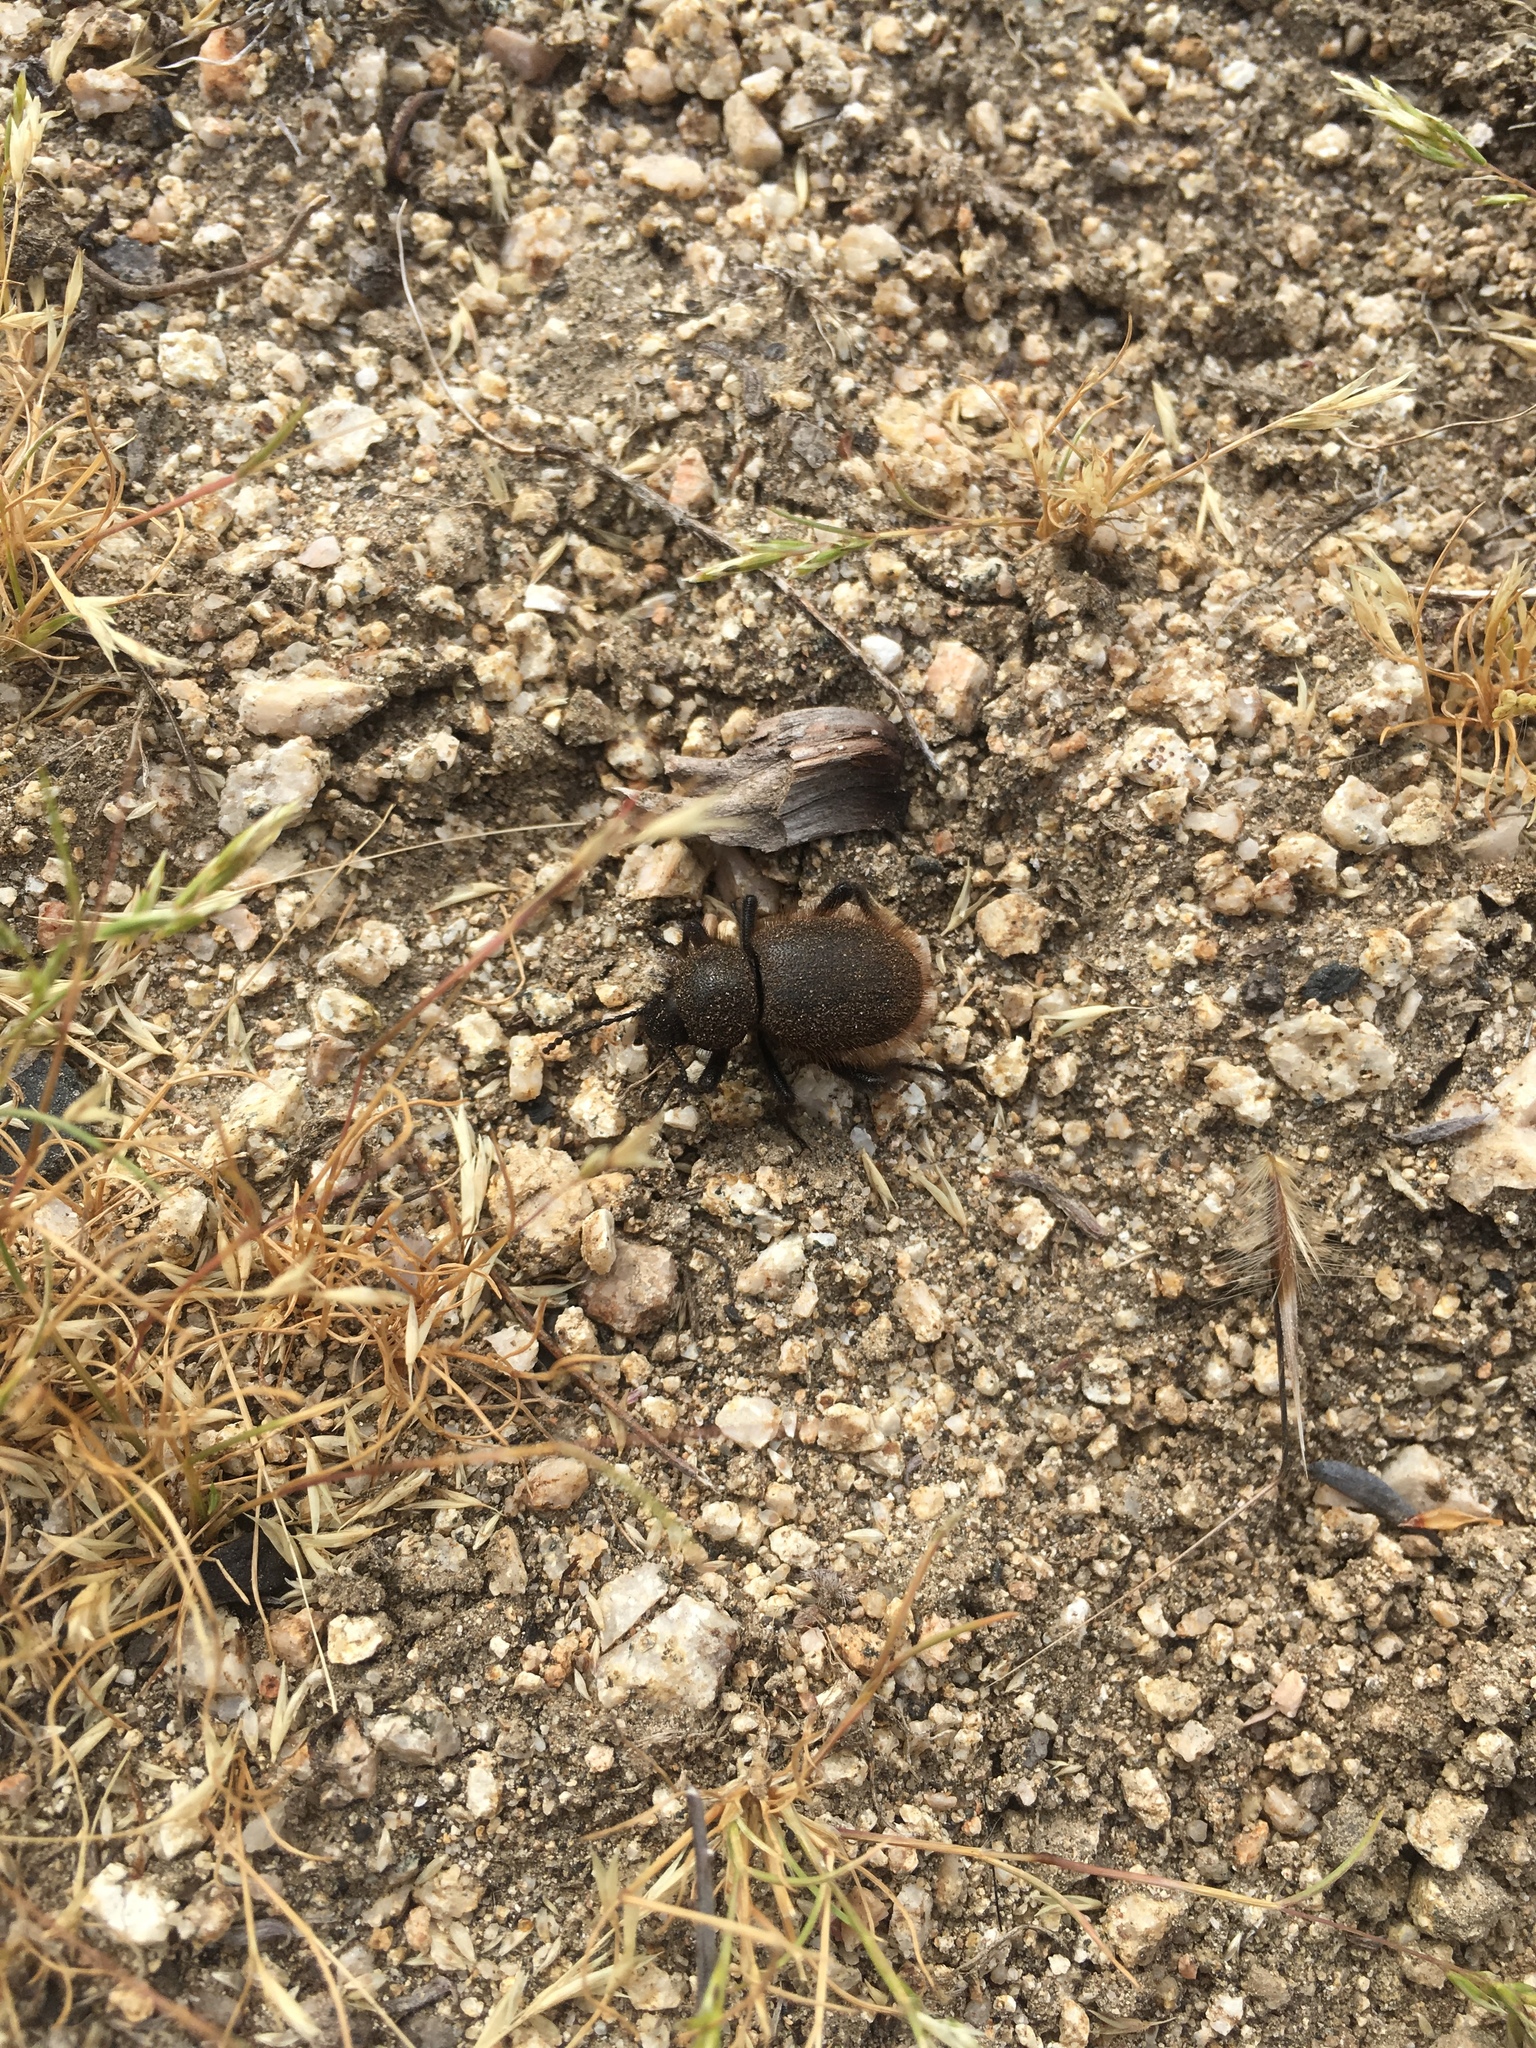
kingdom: Animalia
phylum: Arthropoda
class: Insecta
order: Coleoptera
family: Tenebrionidae
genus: Eleodes
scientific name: Eleodes osculans
